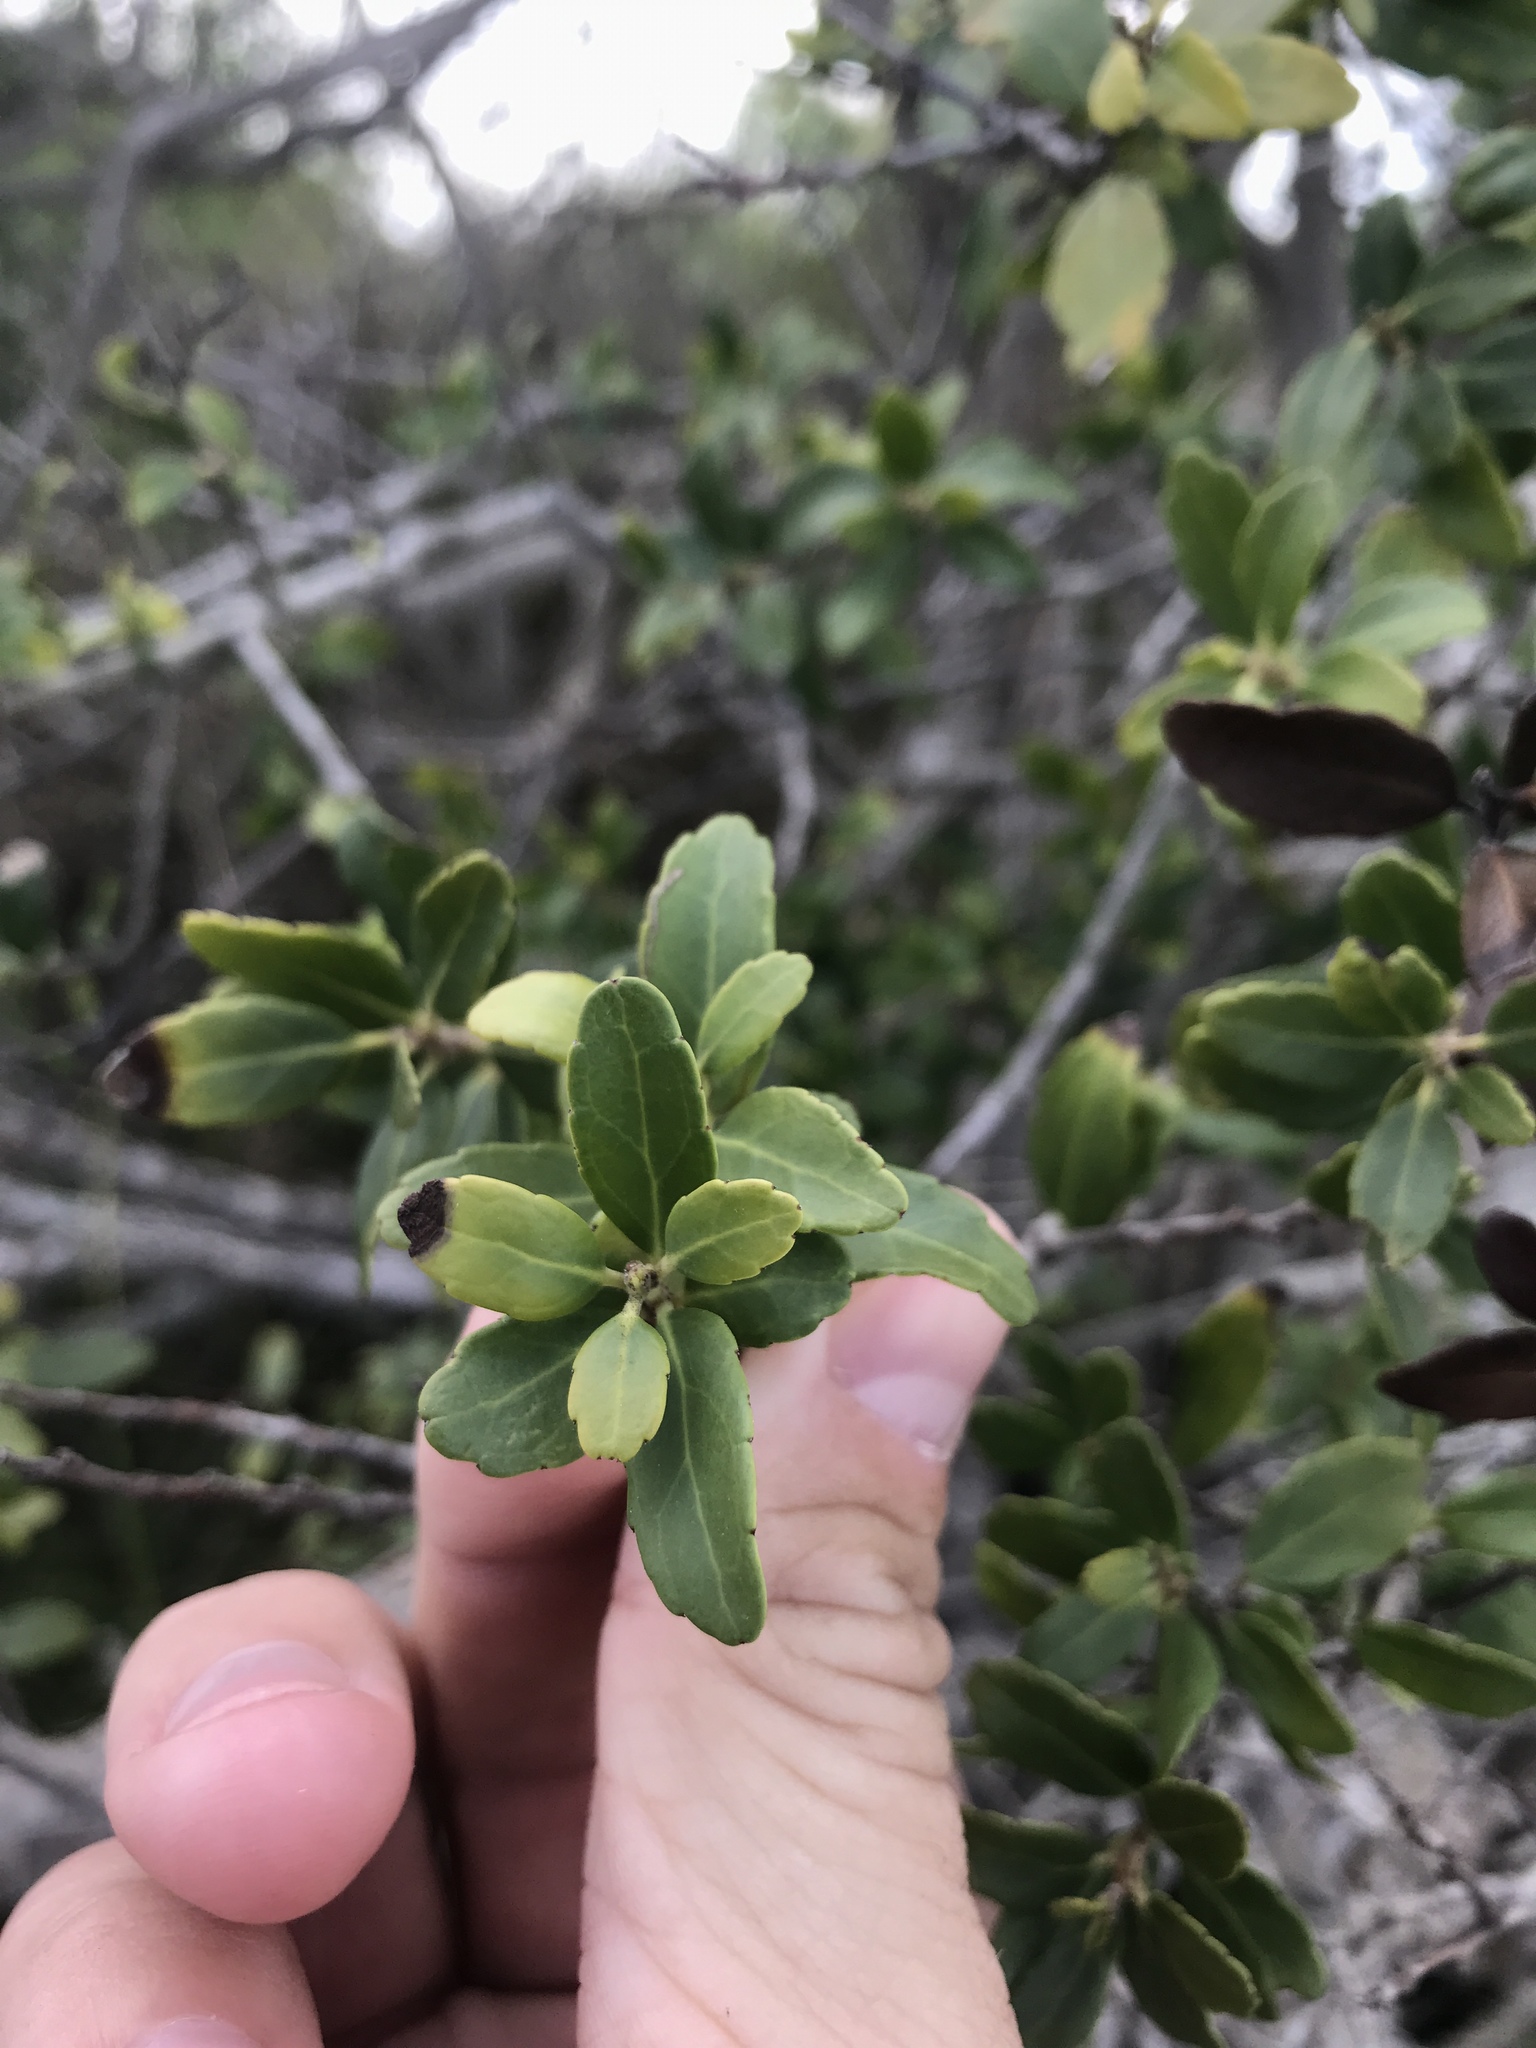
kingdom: Plantae
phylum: Tracheophyta
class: Magnoliopsida
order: Aquifoliales
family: Aquifoliaceae
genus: Ilex
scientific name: Ilex vomitoria
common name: Yaupon holly
